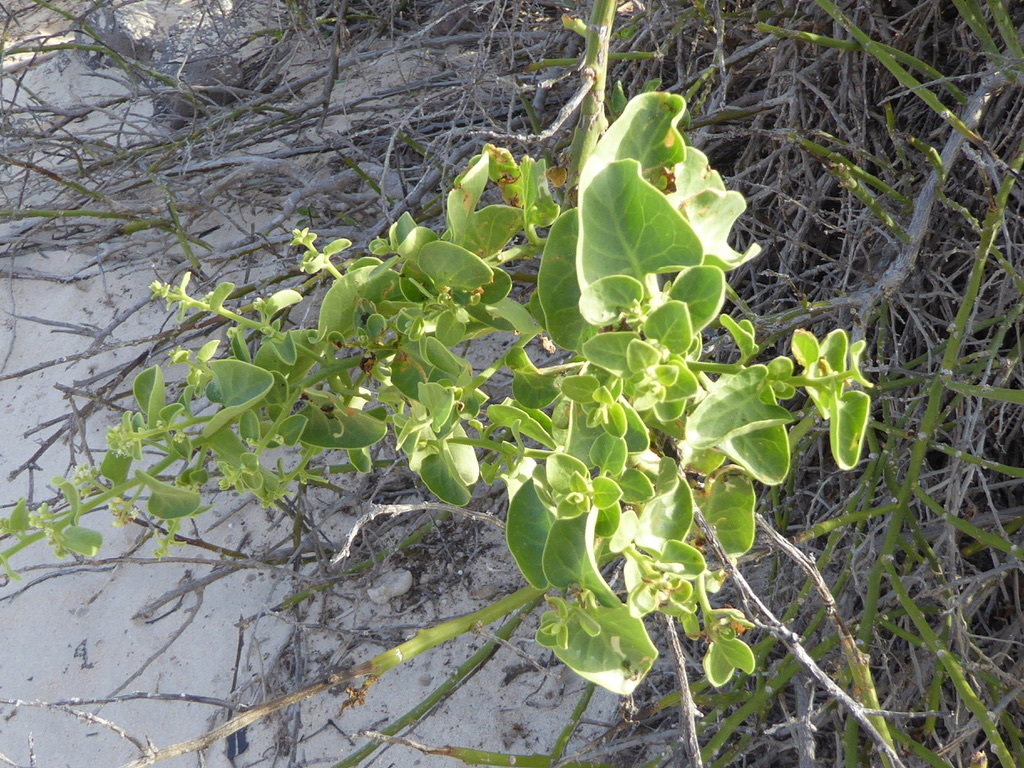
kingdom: Plantae
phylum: Tracheophyta
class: Magnoliopsida
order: Caryophyllales
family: Nyctaginaceae
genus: Cryptocarpus
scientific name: Cryptocarpus pyriformis
